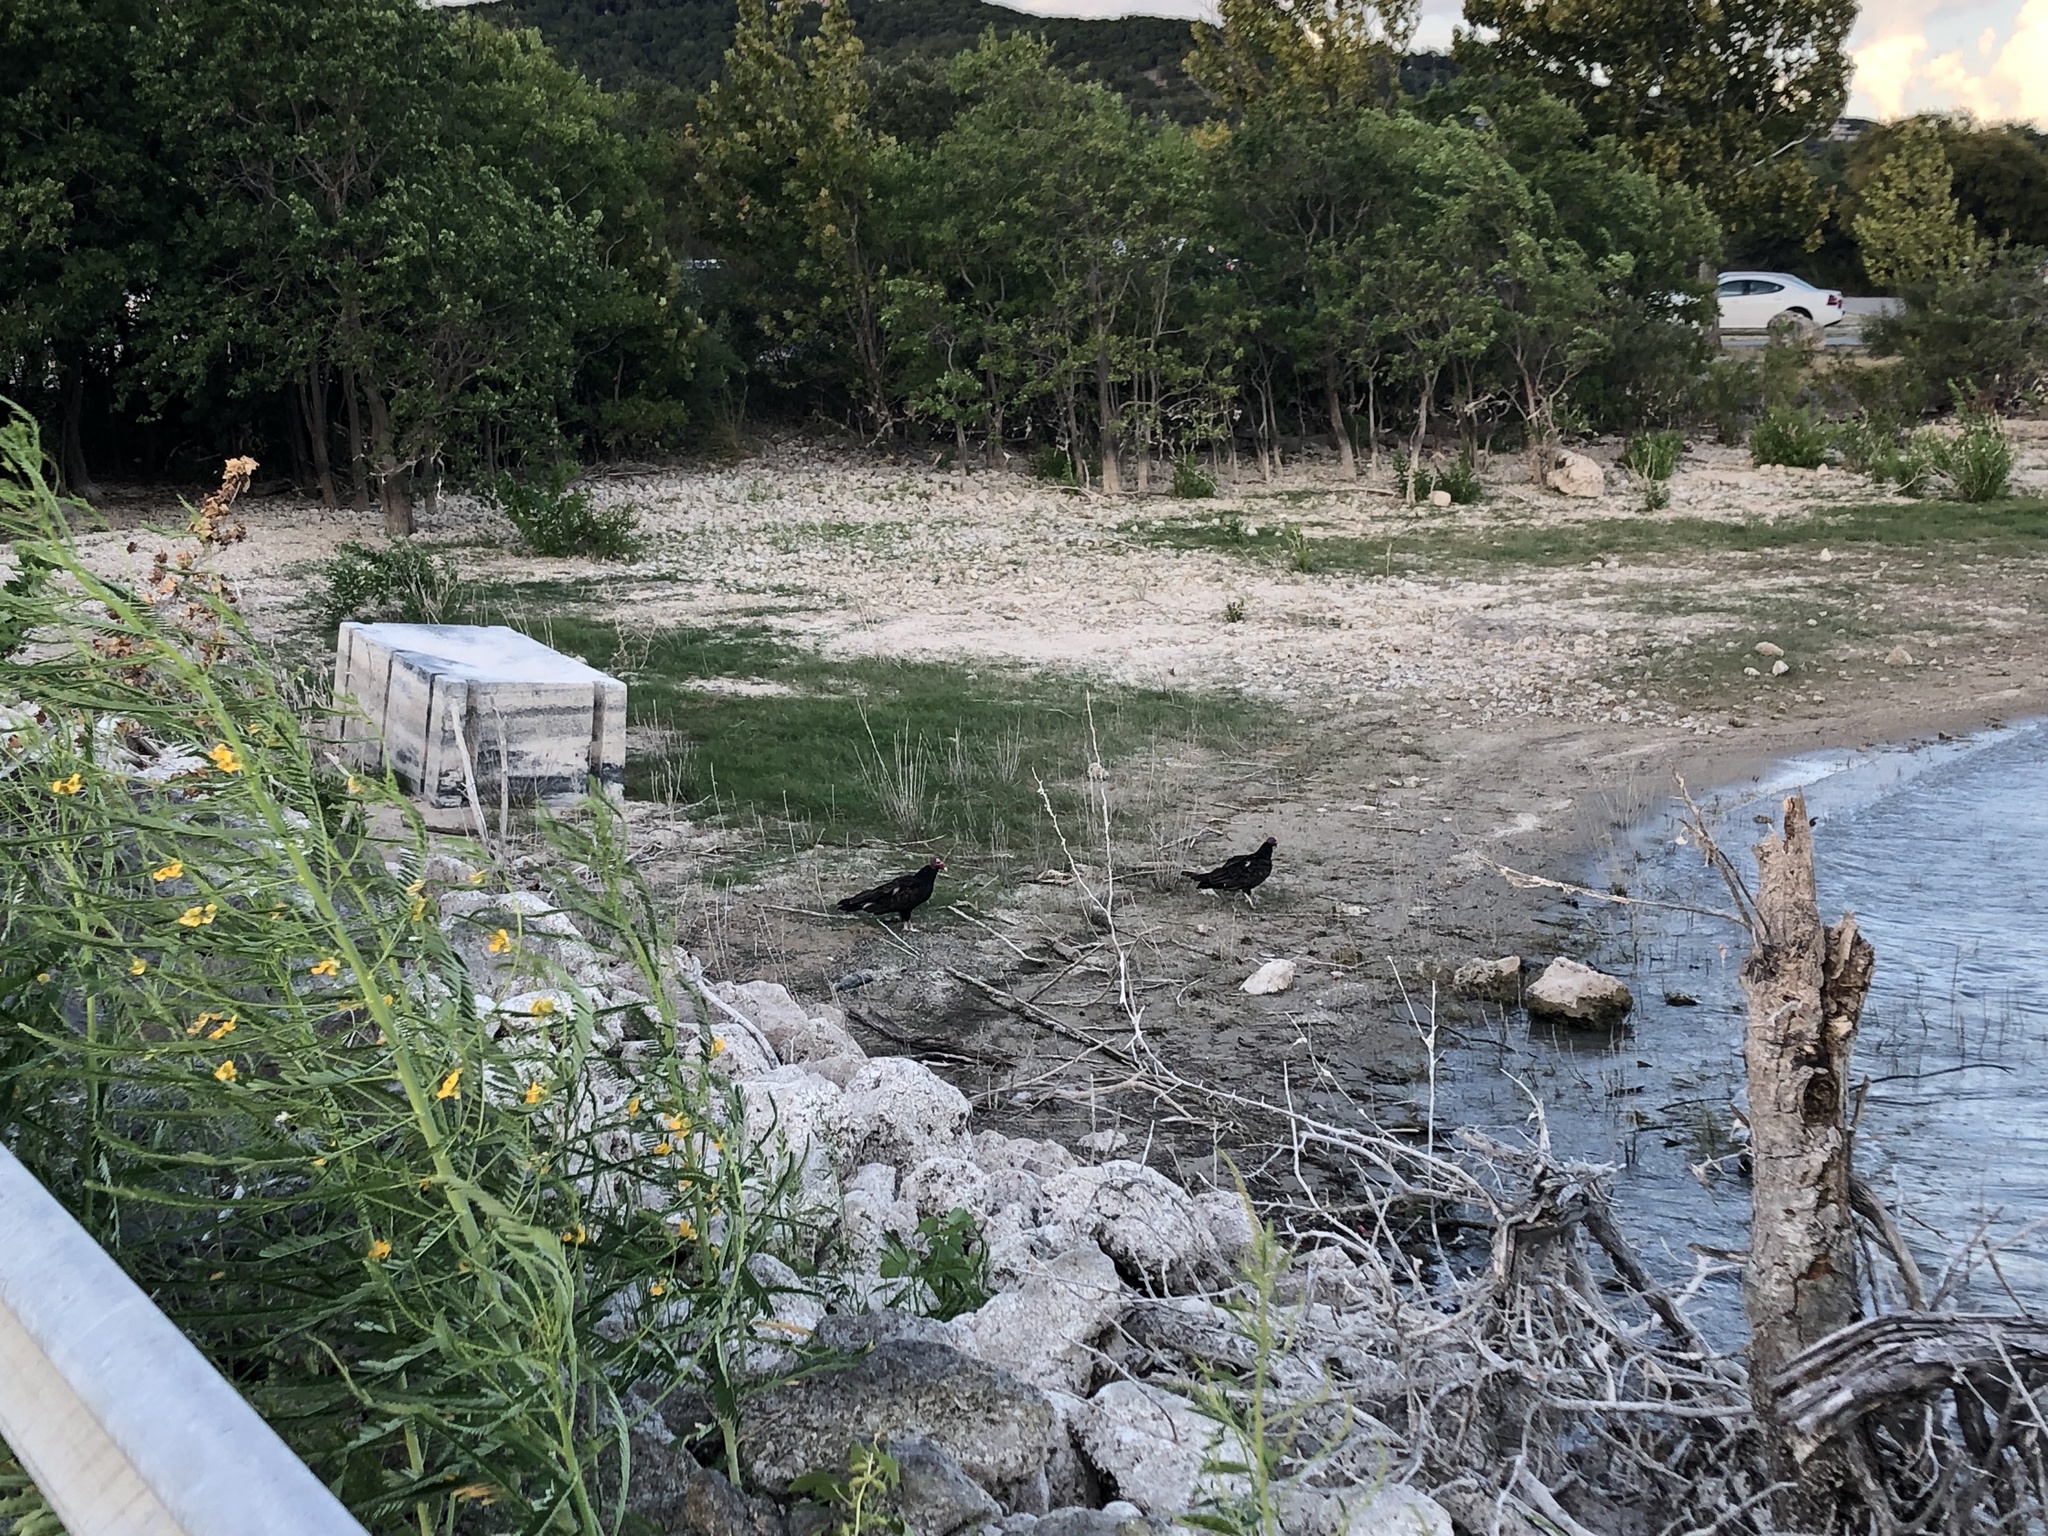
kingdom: Animalia
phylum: Chordata
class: Aves
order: Accipitriformes
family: Cathartidae
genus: Cathartes
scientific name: Cathartes aura
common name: Turkey vulture
